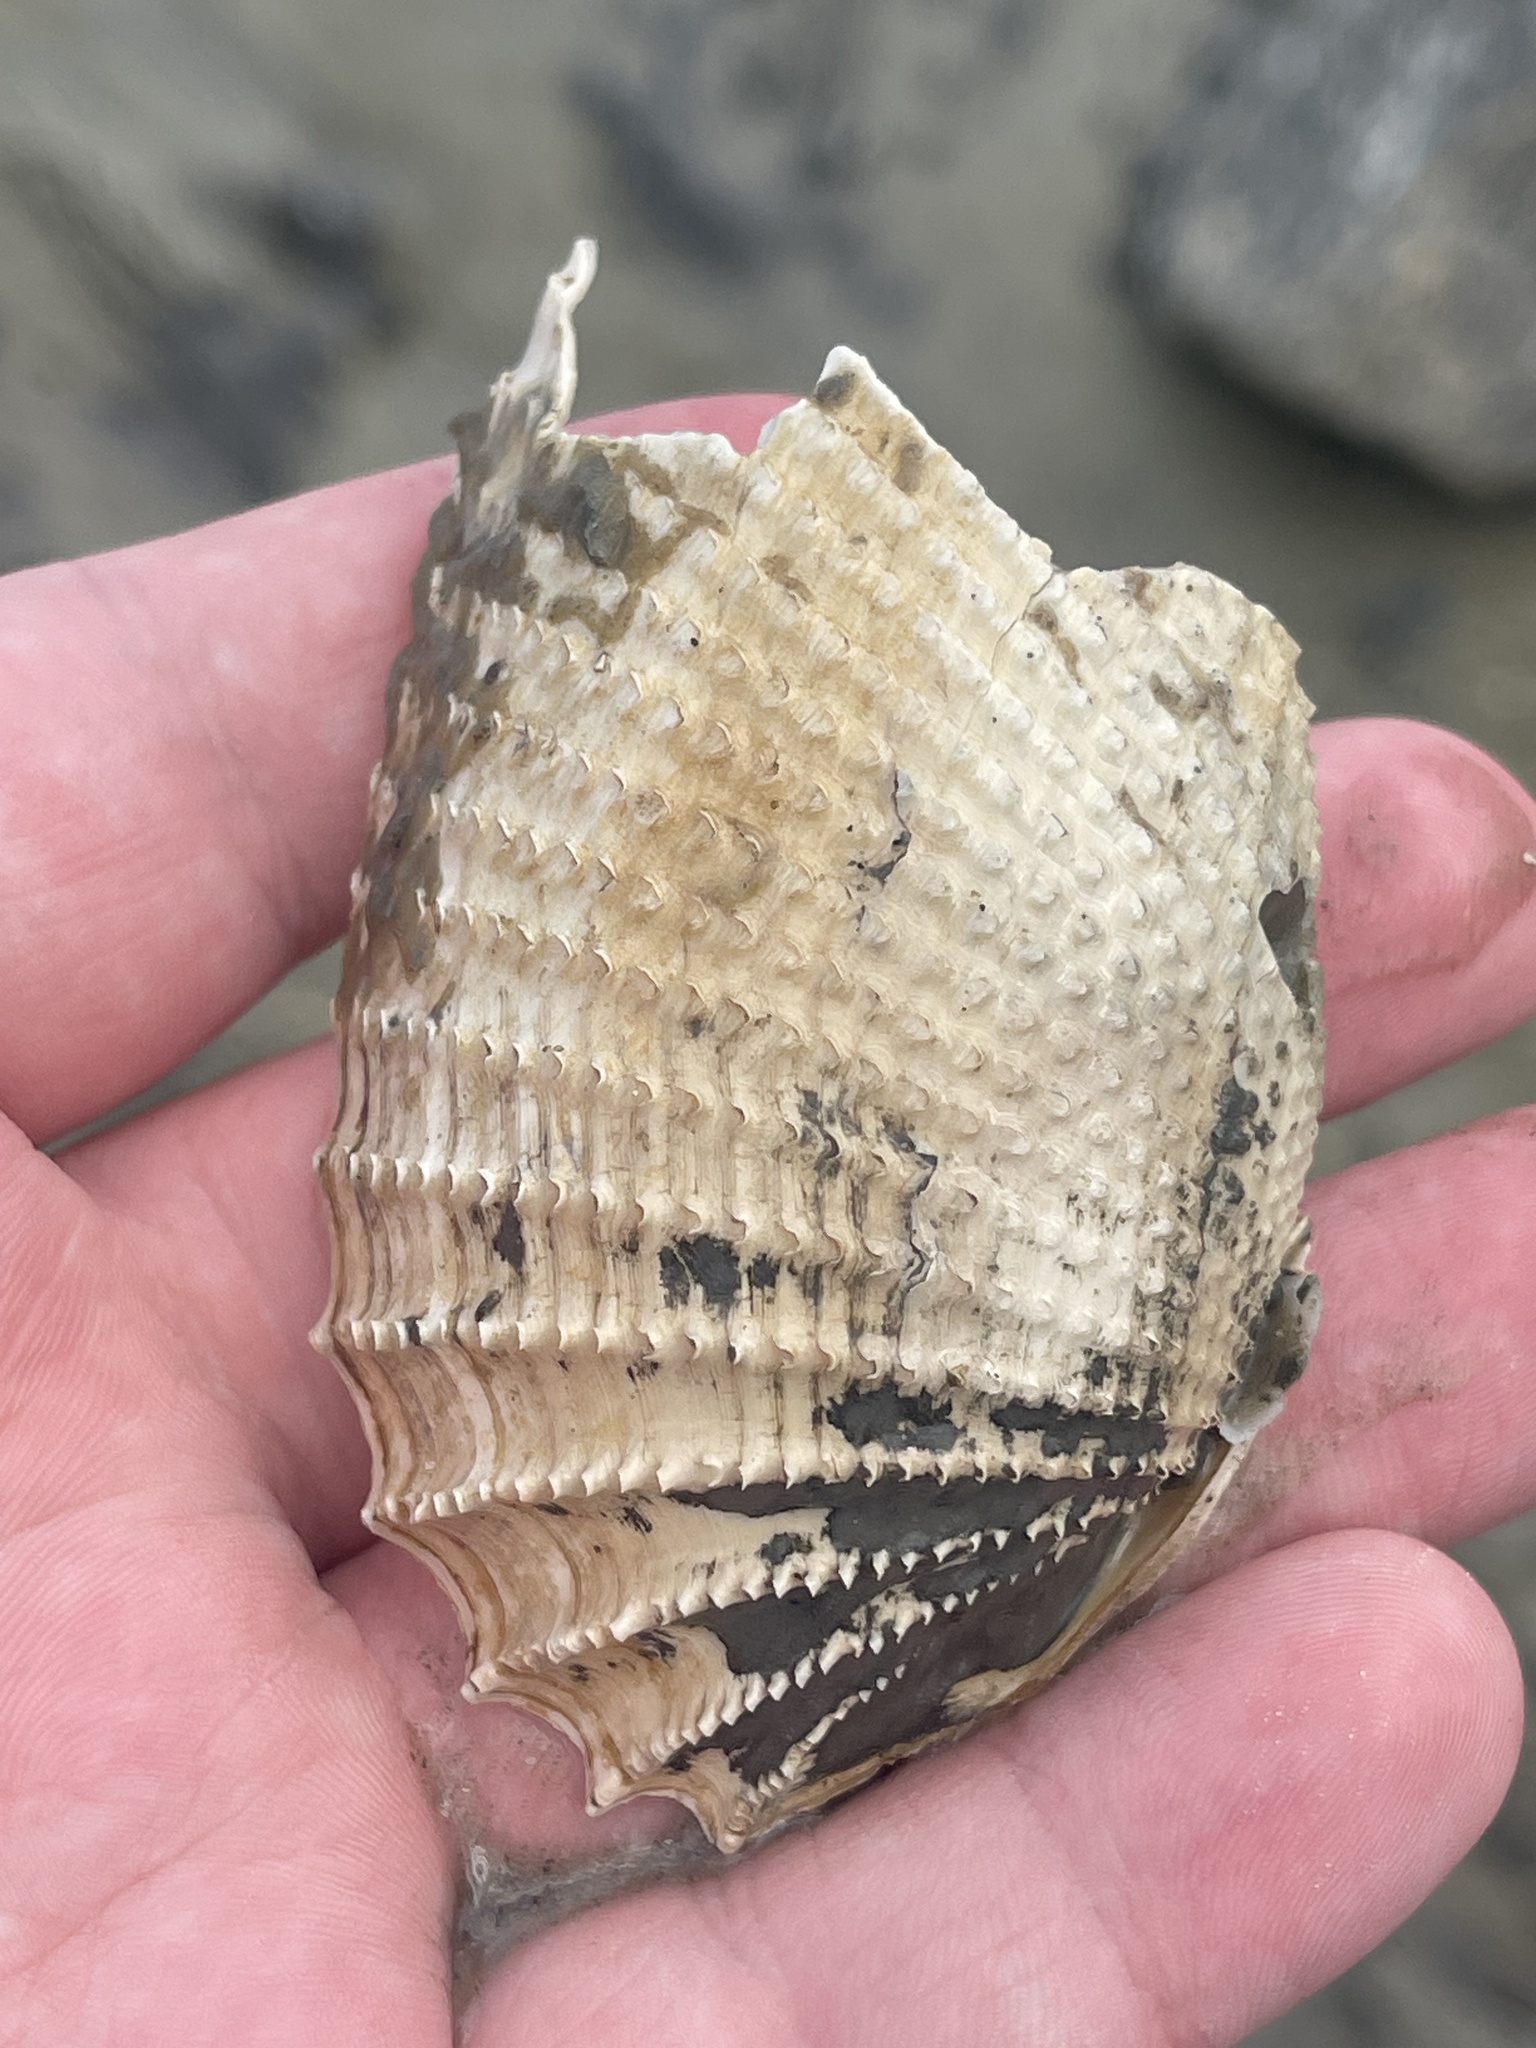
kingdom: Animalia
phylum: Mollusca
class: Bivalvia
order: Myida
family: Pholadidae
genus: Cyrtopleura
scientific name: Cyrtopleura costata
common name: Angel wing
